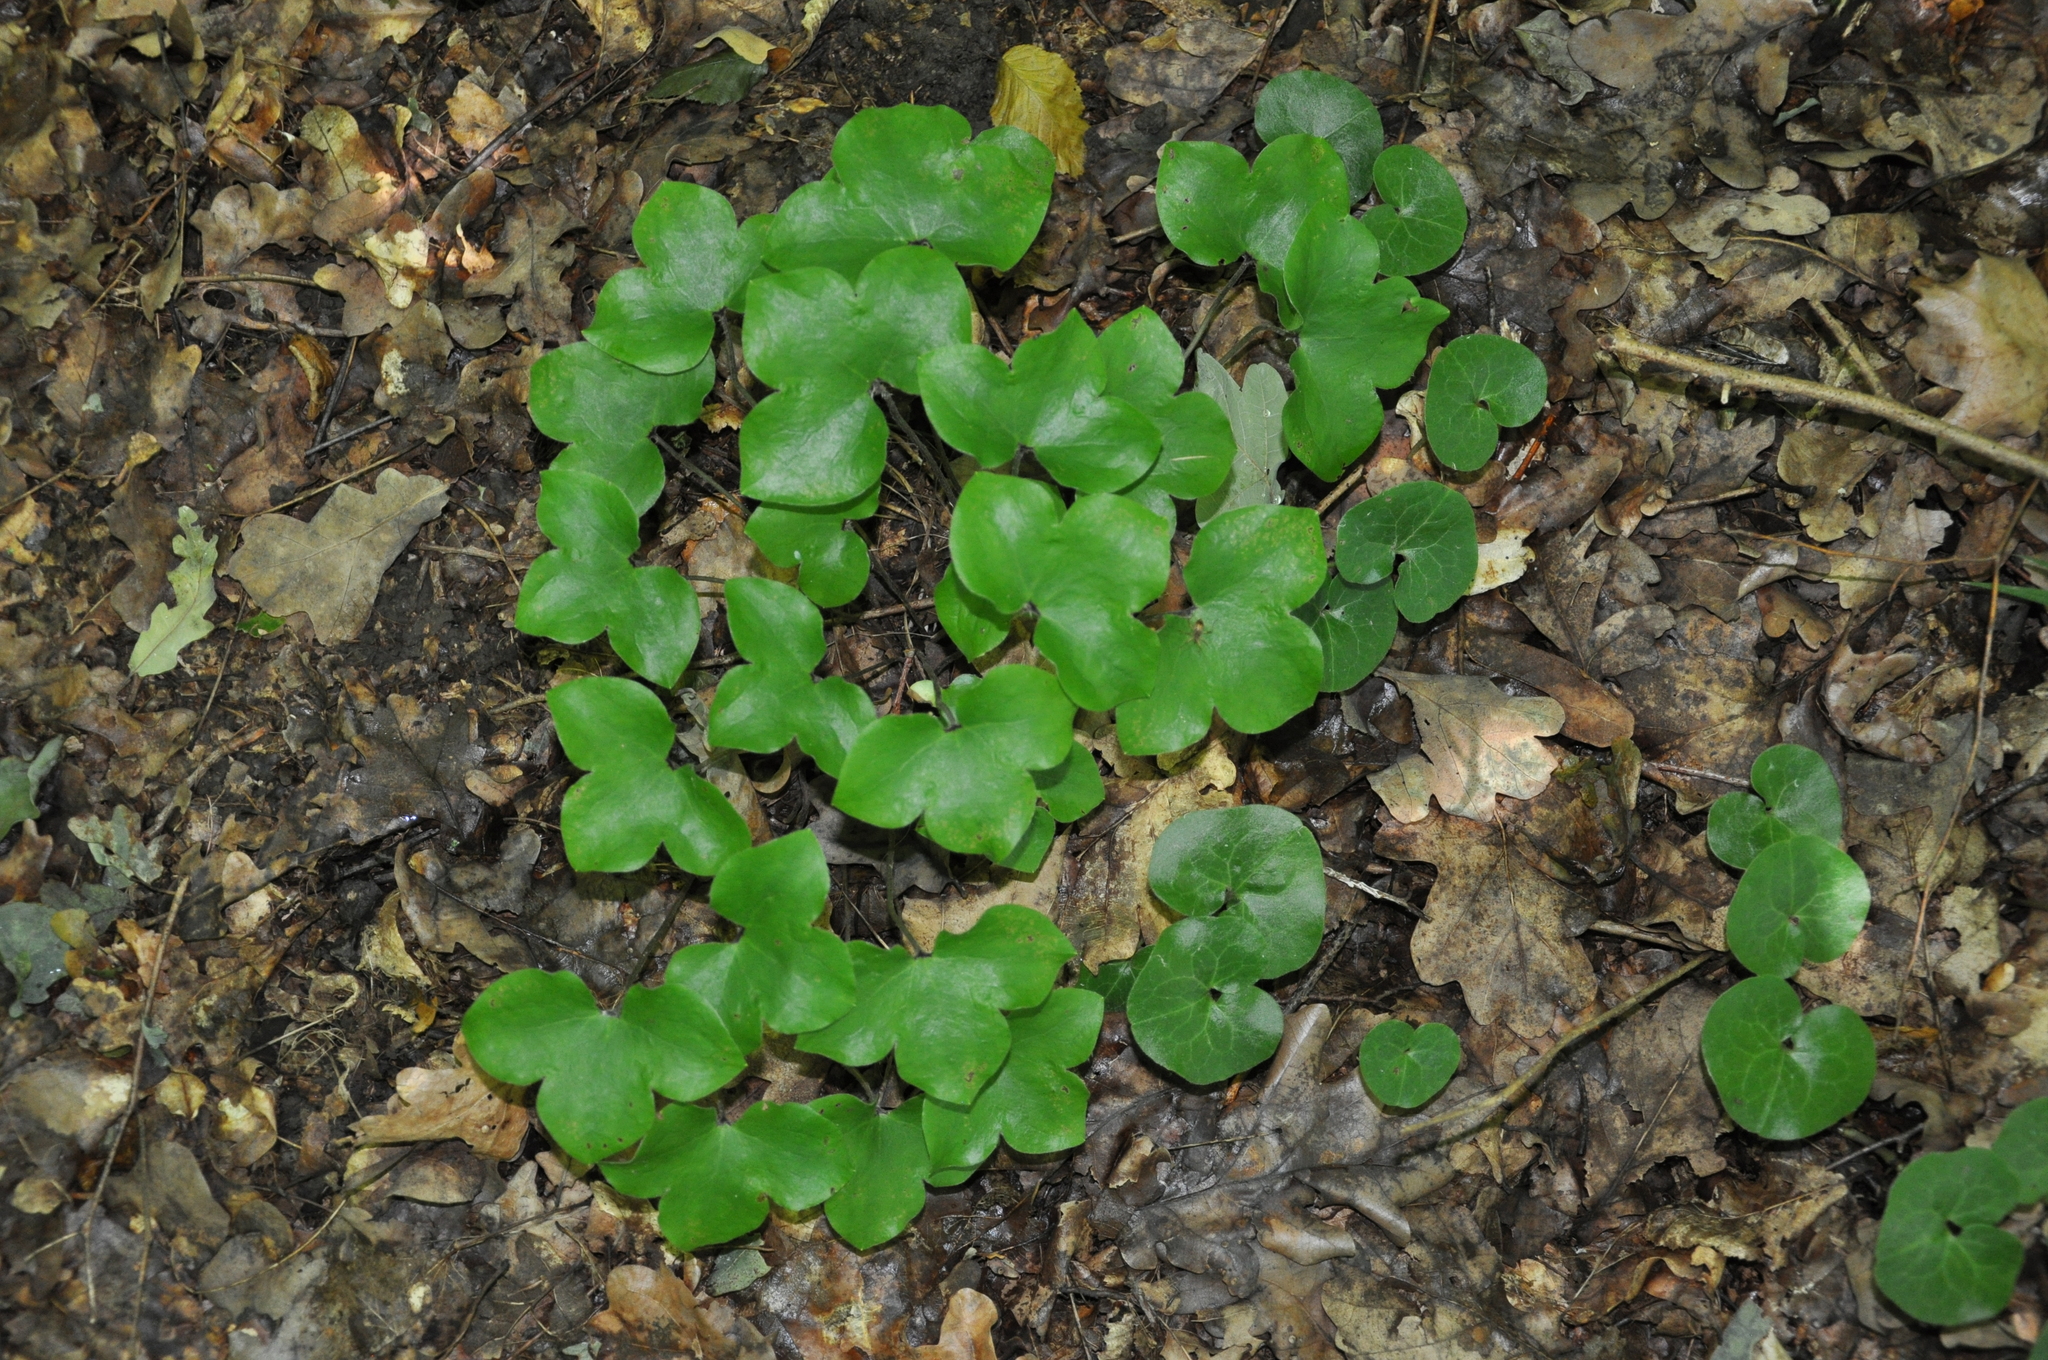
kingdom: Plantae
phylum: Tracheophyta
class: Magnoliopsida
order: Ranunculales
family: Ranunculaceae
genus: Hepatica
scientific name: Hepatica nobilis
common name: Liverleaf
